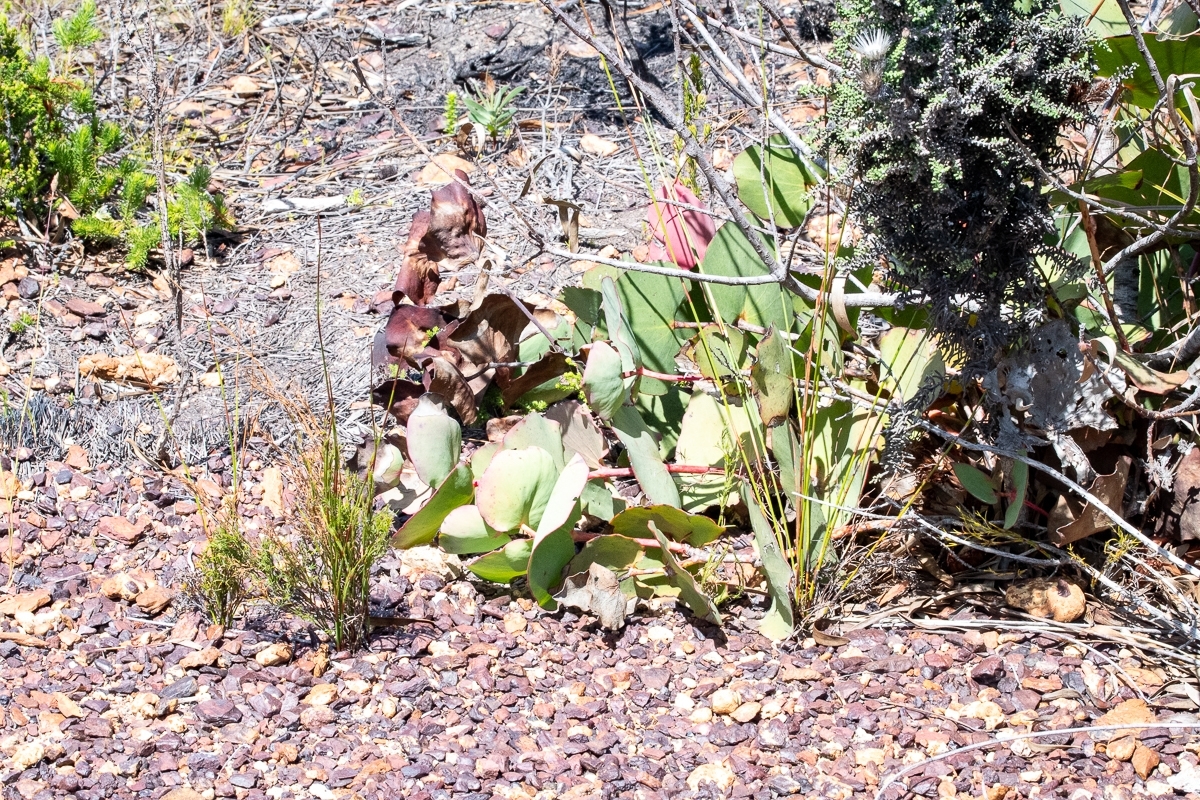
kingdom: Plantae
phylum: Tracheophyta
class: Magnoliopsida
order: Proteales
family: Proteaceae
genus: Protea
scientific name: Protea cordata
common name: Heart-leaf sugarbush
